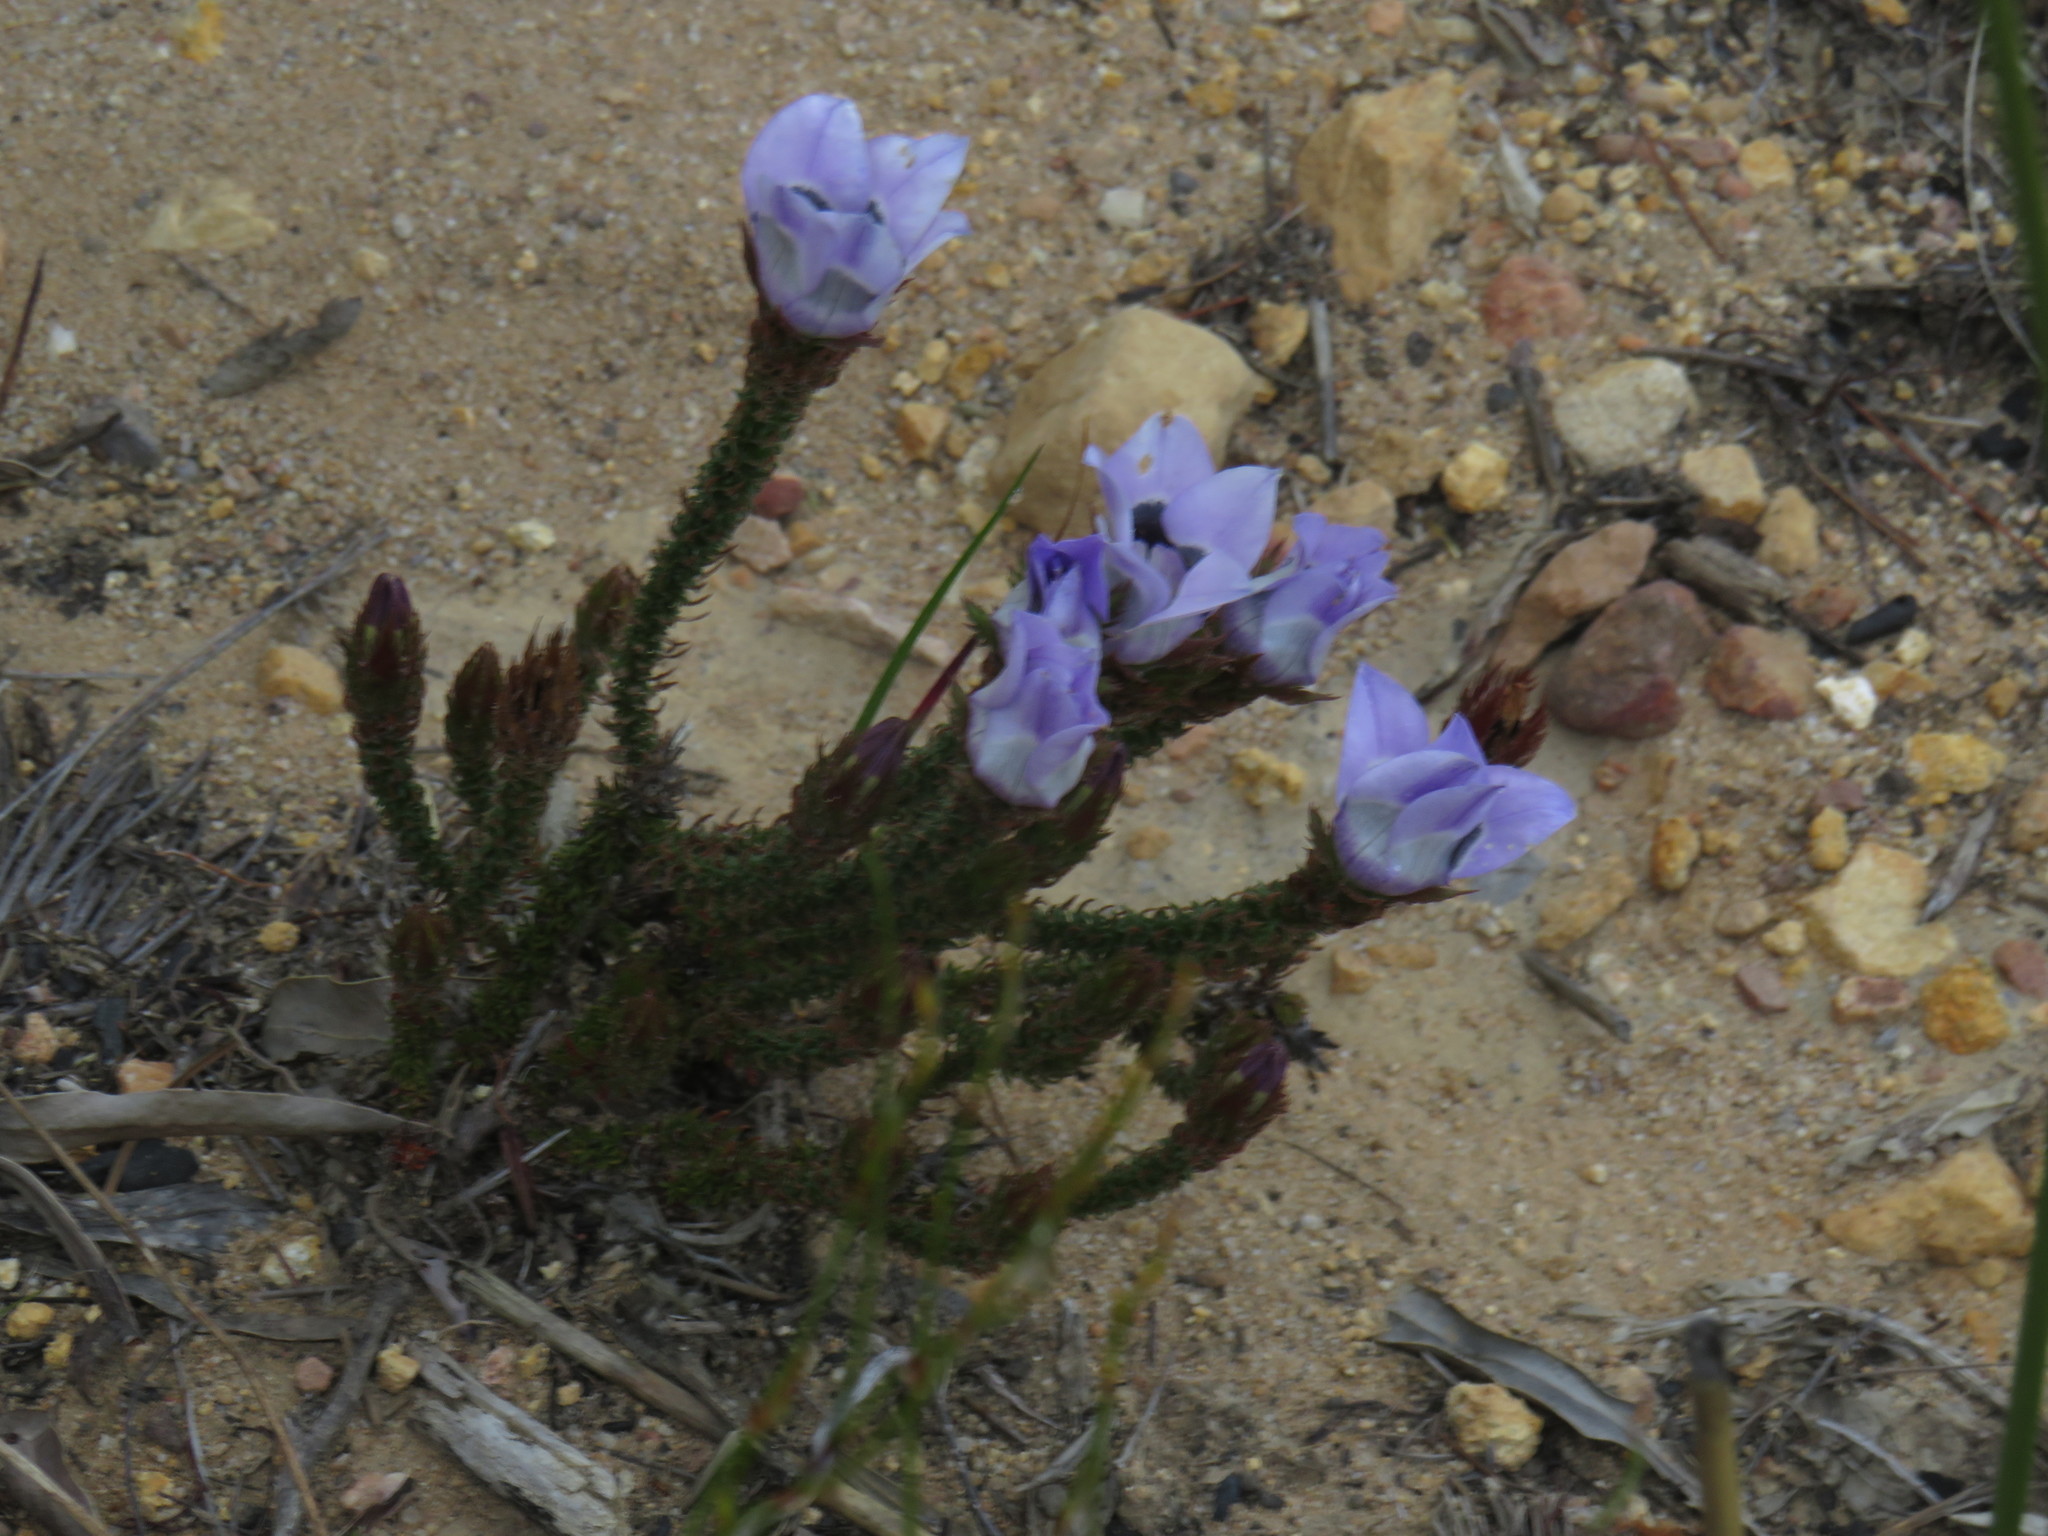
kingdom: Plantae
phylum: Tracheophyta
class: Magnoliopsida
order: Asterales
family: Campanulaceae
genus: Roella
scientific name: Roella incurva
